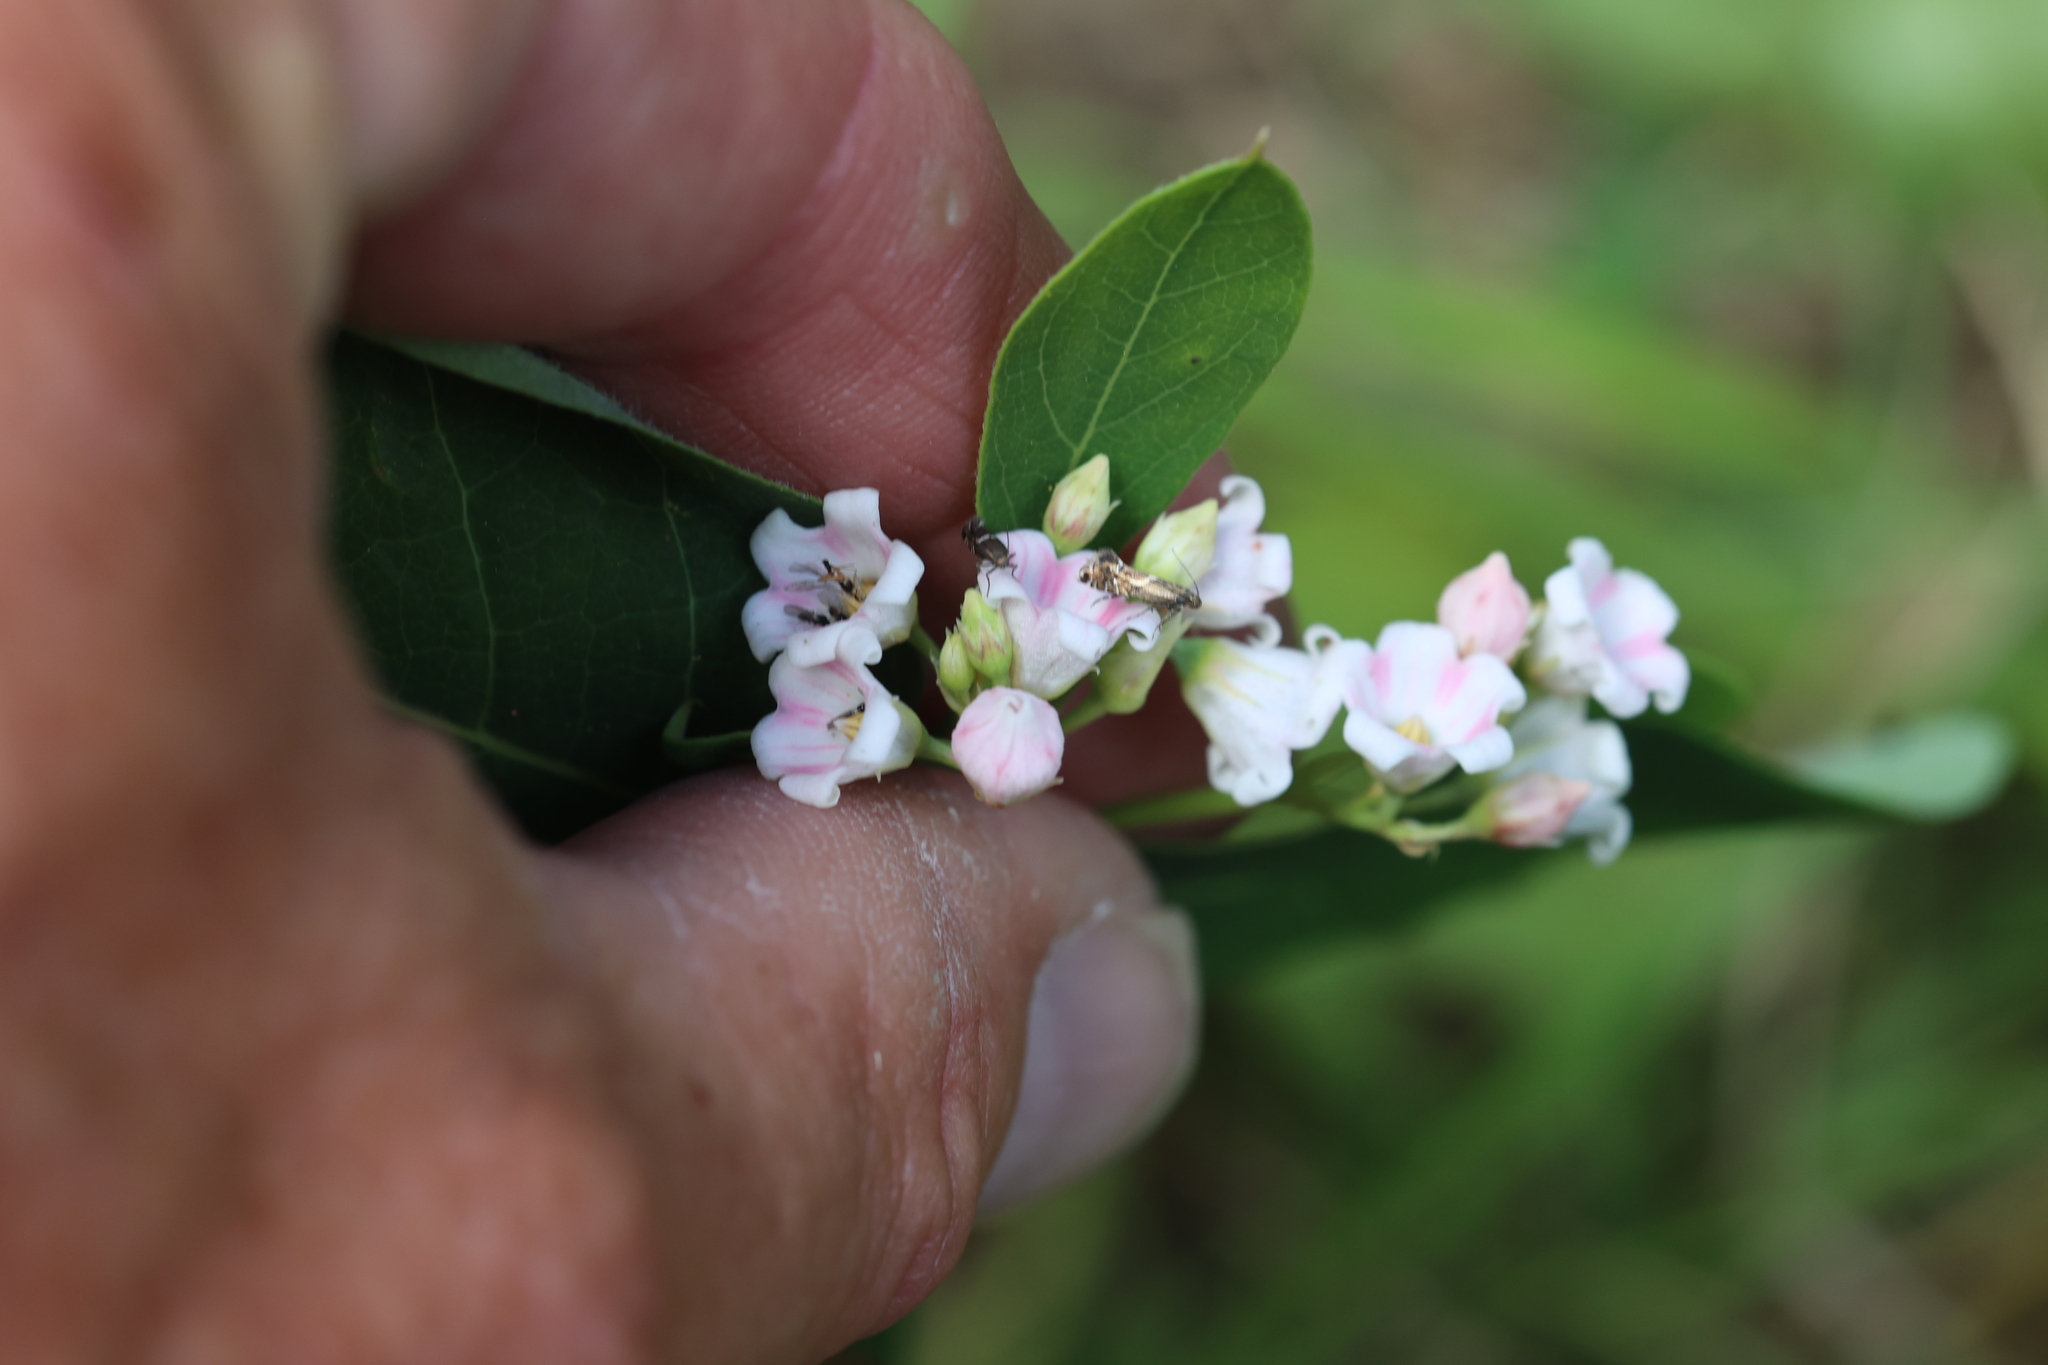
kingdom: Plantae
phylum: Tracheophyta
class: Magnoliopsida
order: Gentianales
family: Apocynaceae
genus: Apocynum
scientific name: Apocynum androsaemifolium
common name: Spreading dogbane
